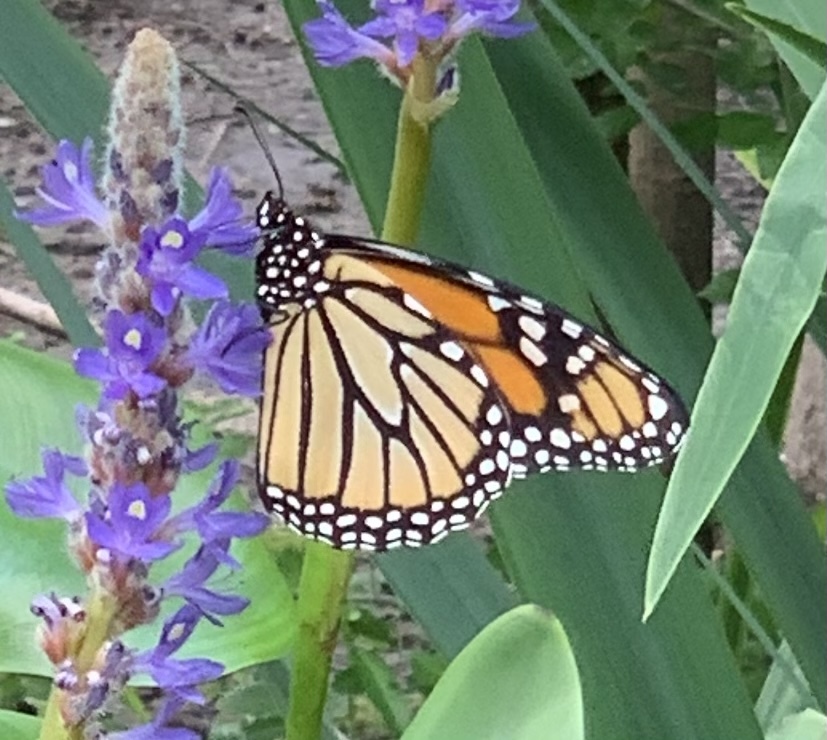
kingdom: Animalia
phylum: Arthropoda
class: Insecta
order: Lepidoptera
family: Nymphalidae
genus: Danaus
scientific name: Danaus plexippus
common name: Monarch
